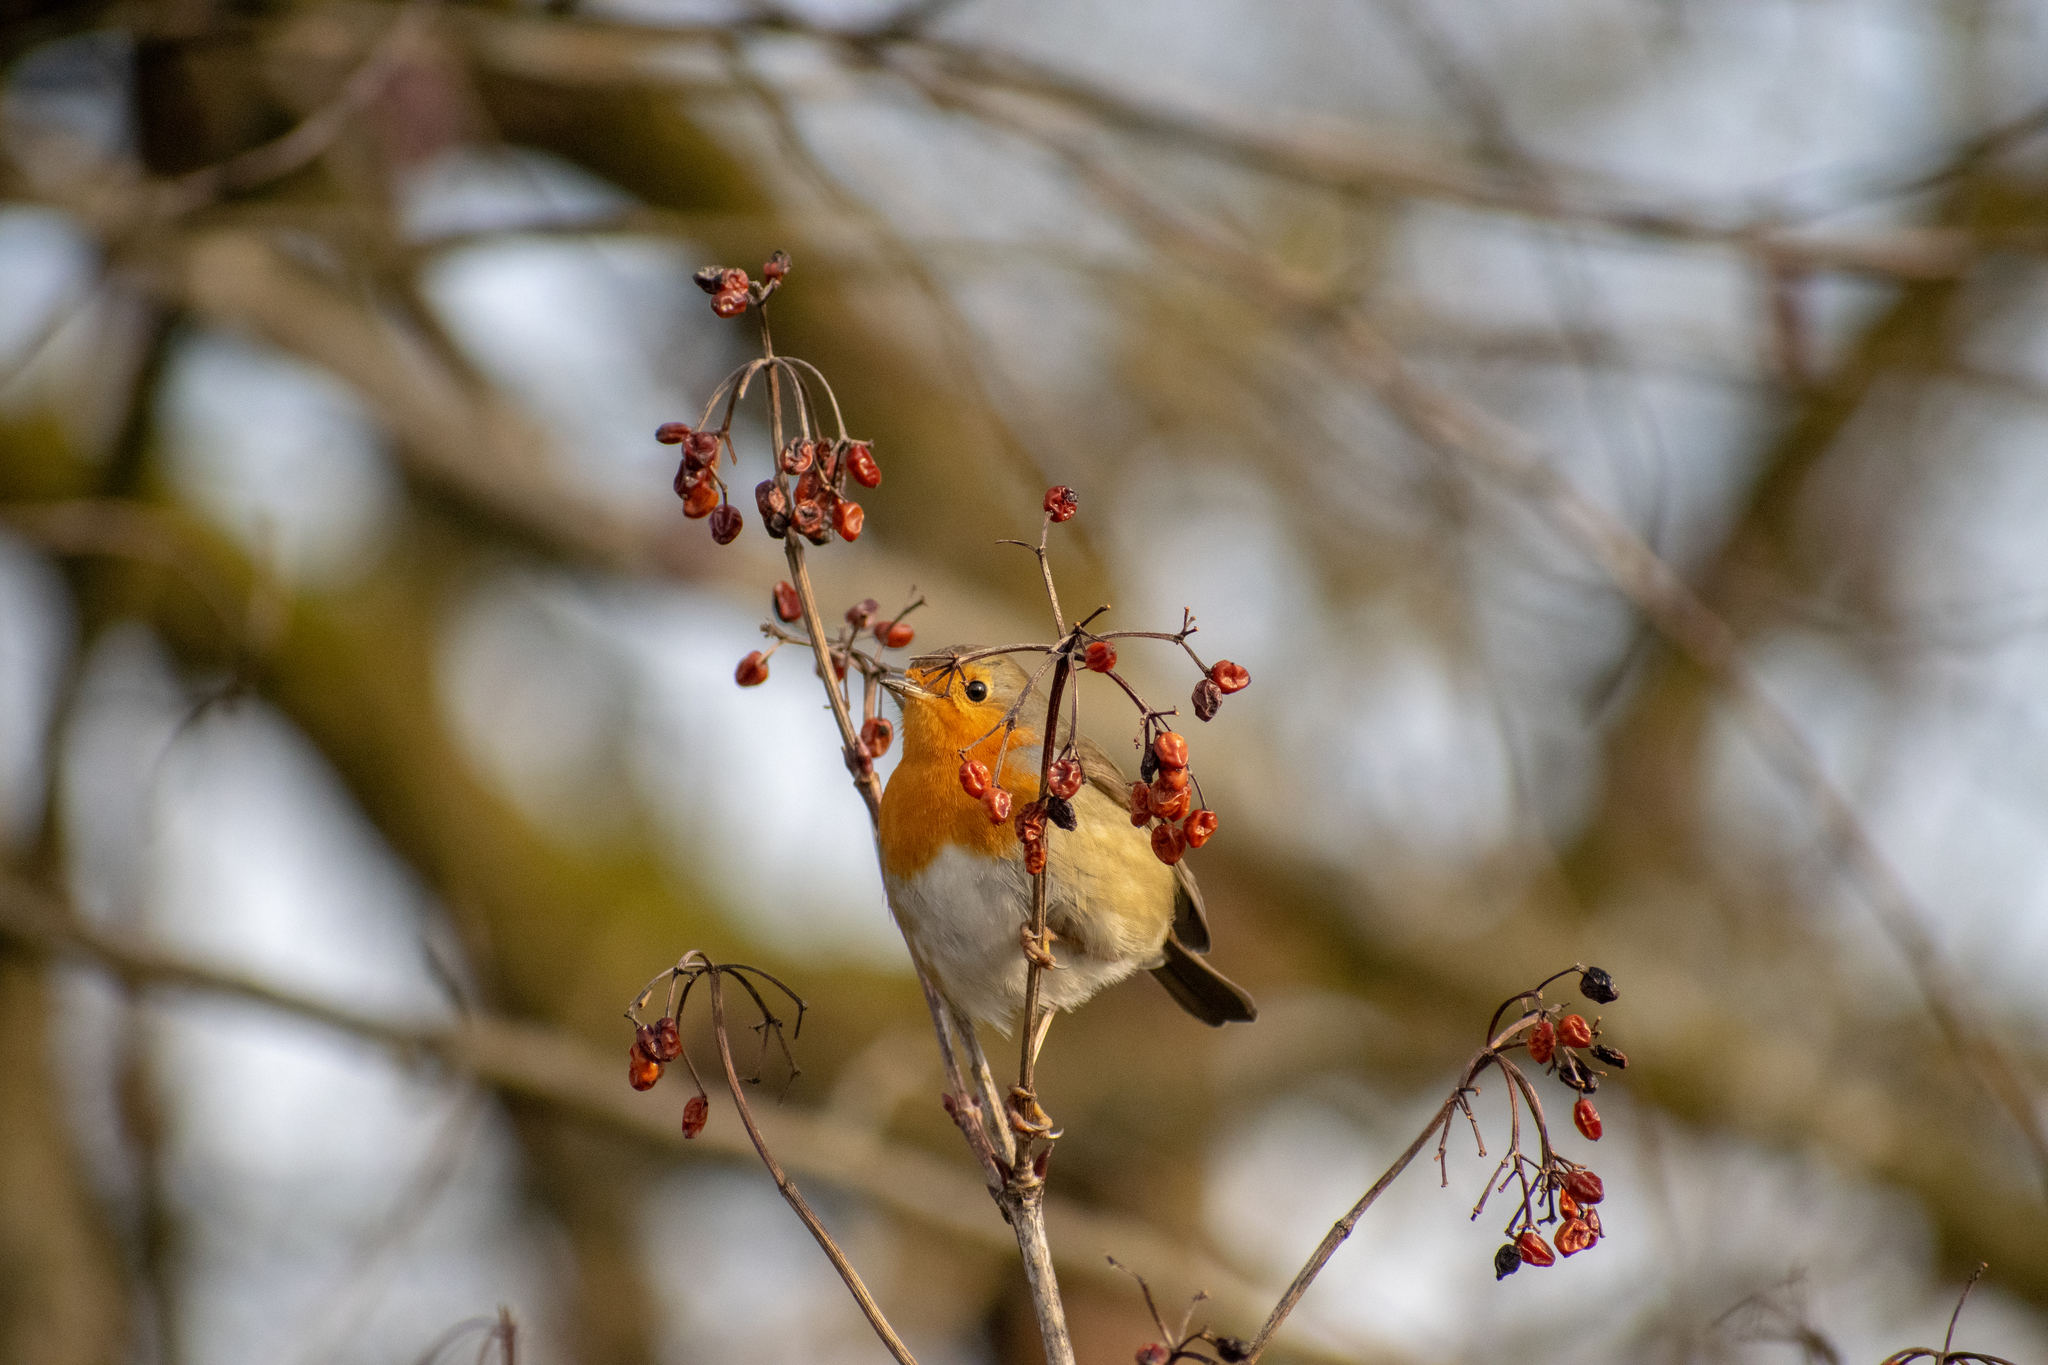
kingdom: Animalia
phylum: Chordata
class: Aves
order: Passeriformes
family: Muscicapidae
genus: Erithacus
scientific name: Erithacus rubecula
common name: European robin
